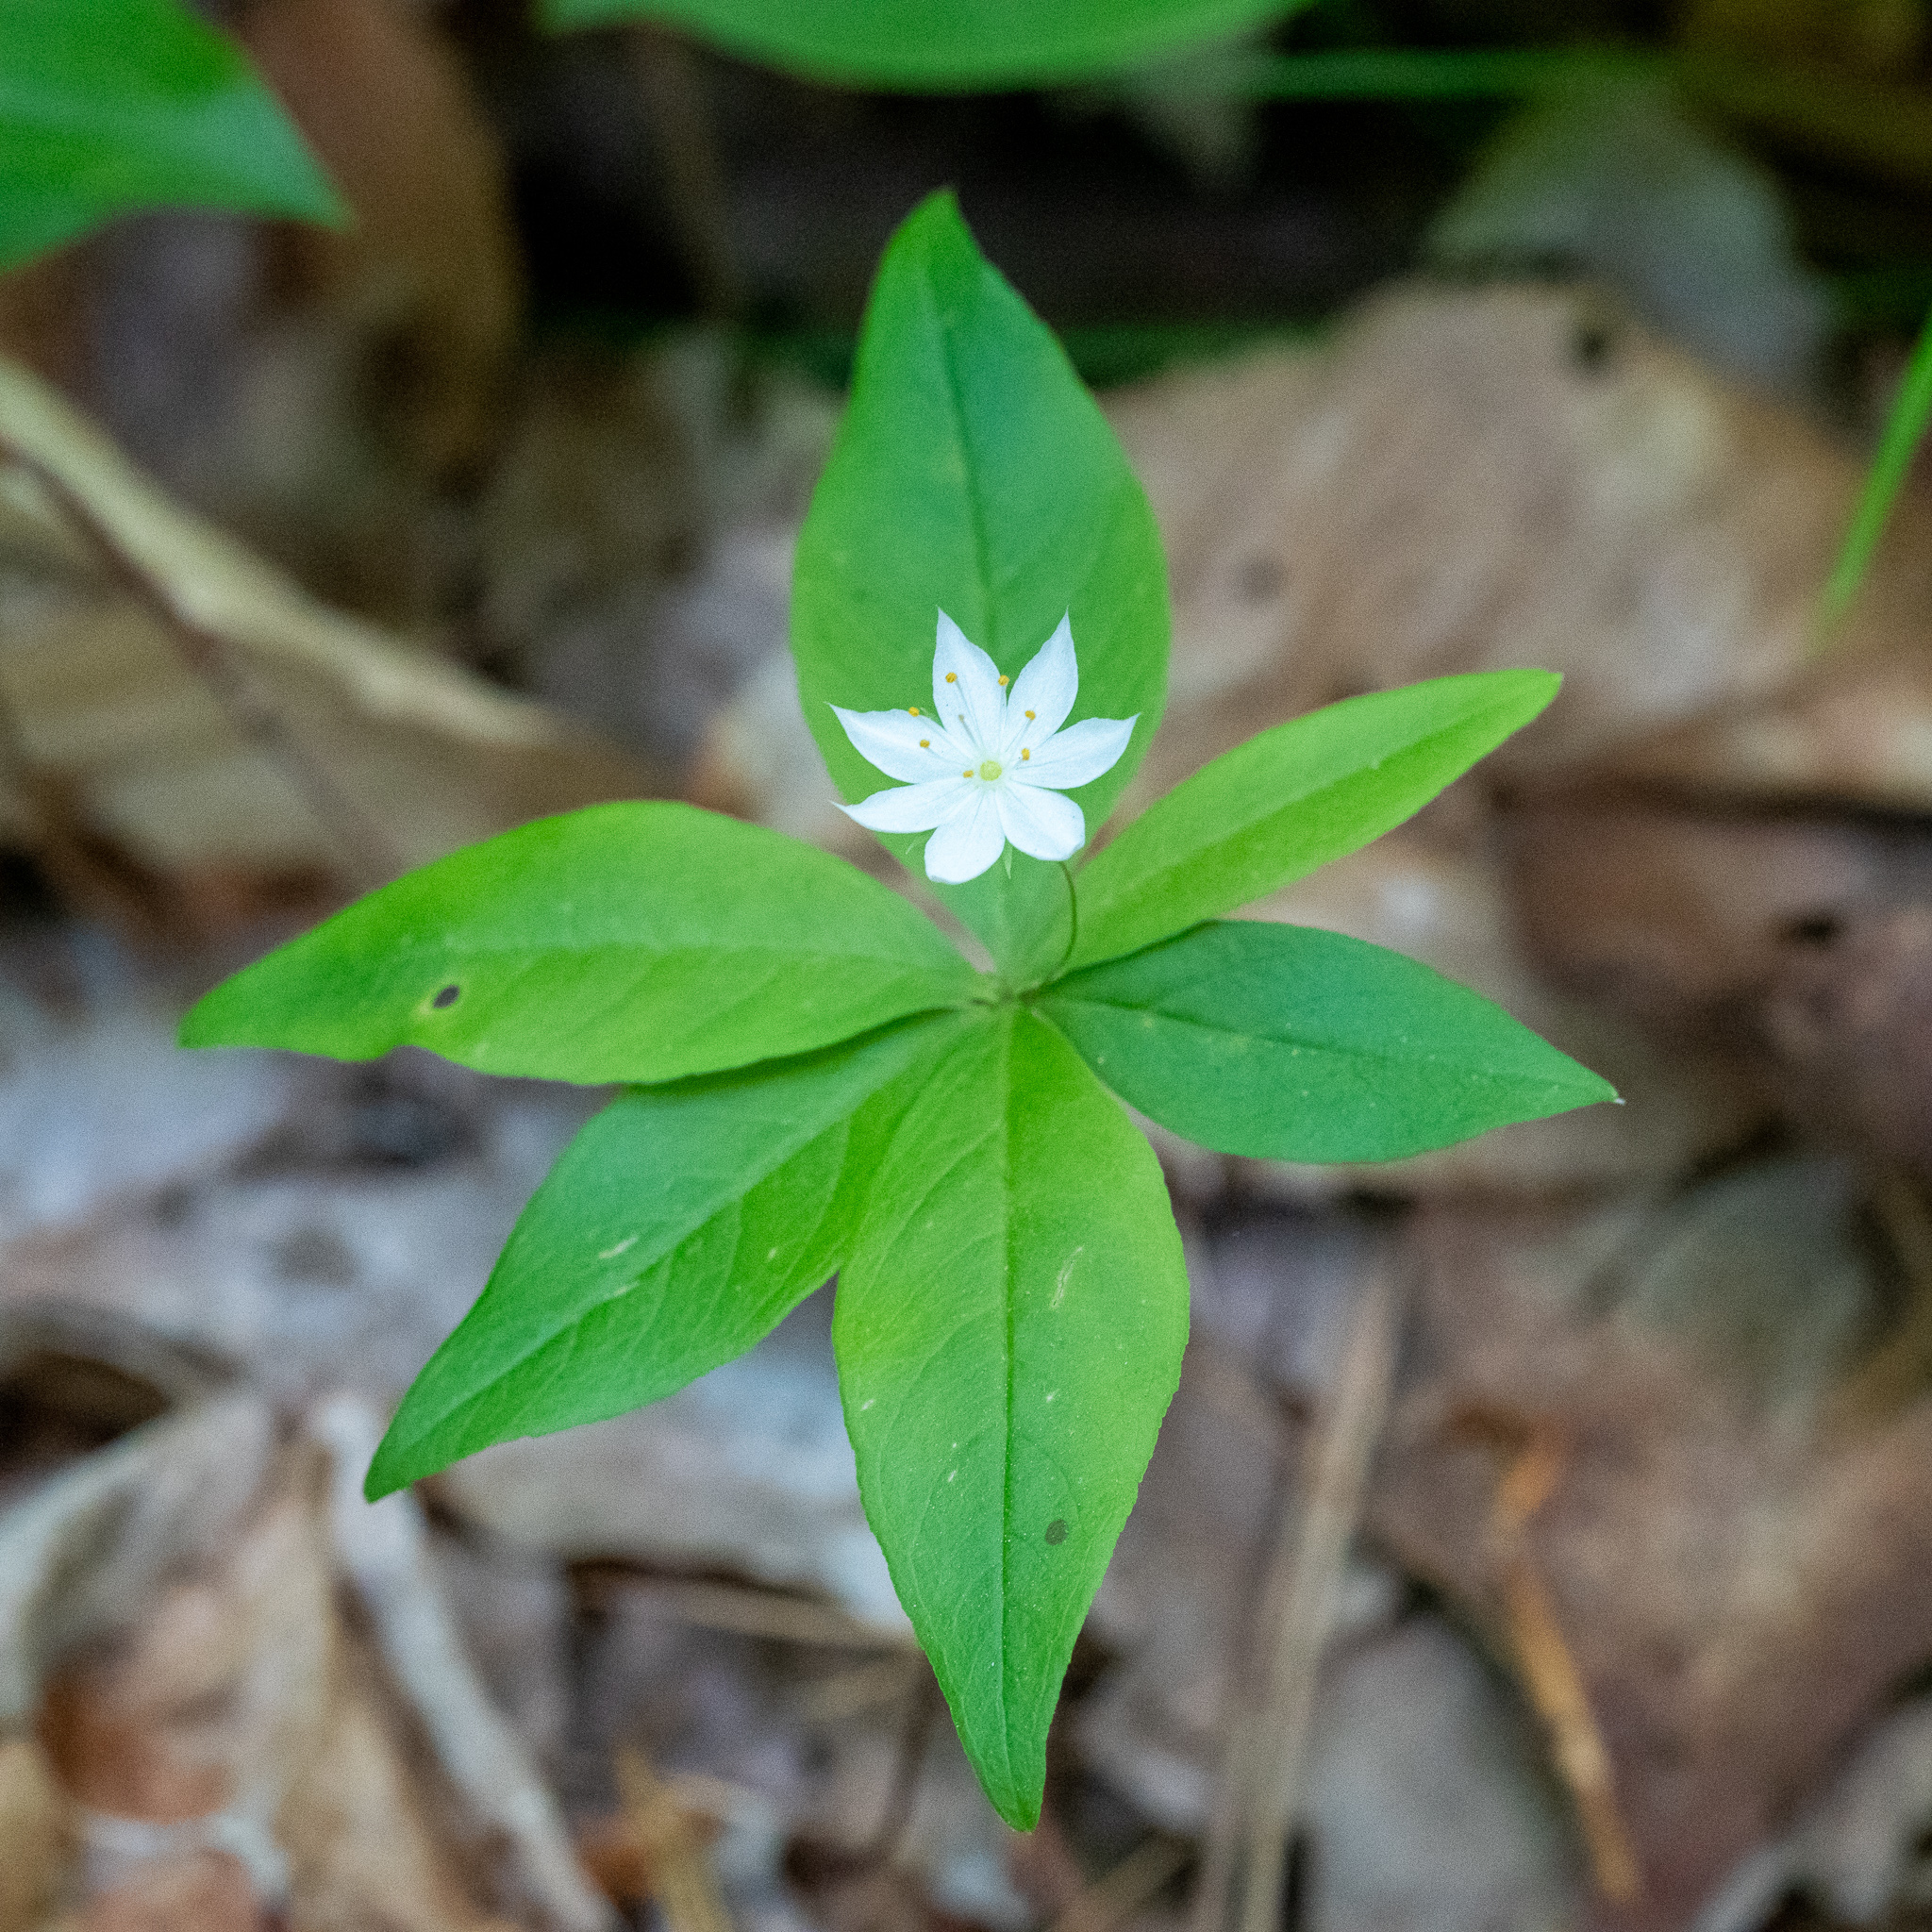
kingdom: Plantae
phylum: Tracheophyta
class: Magnoliopsida
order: Ericales
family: Primulaceae
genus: Lysimachia
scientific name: Lysimachia borealis
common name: American starflower
